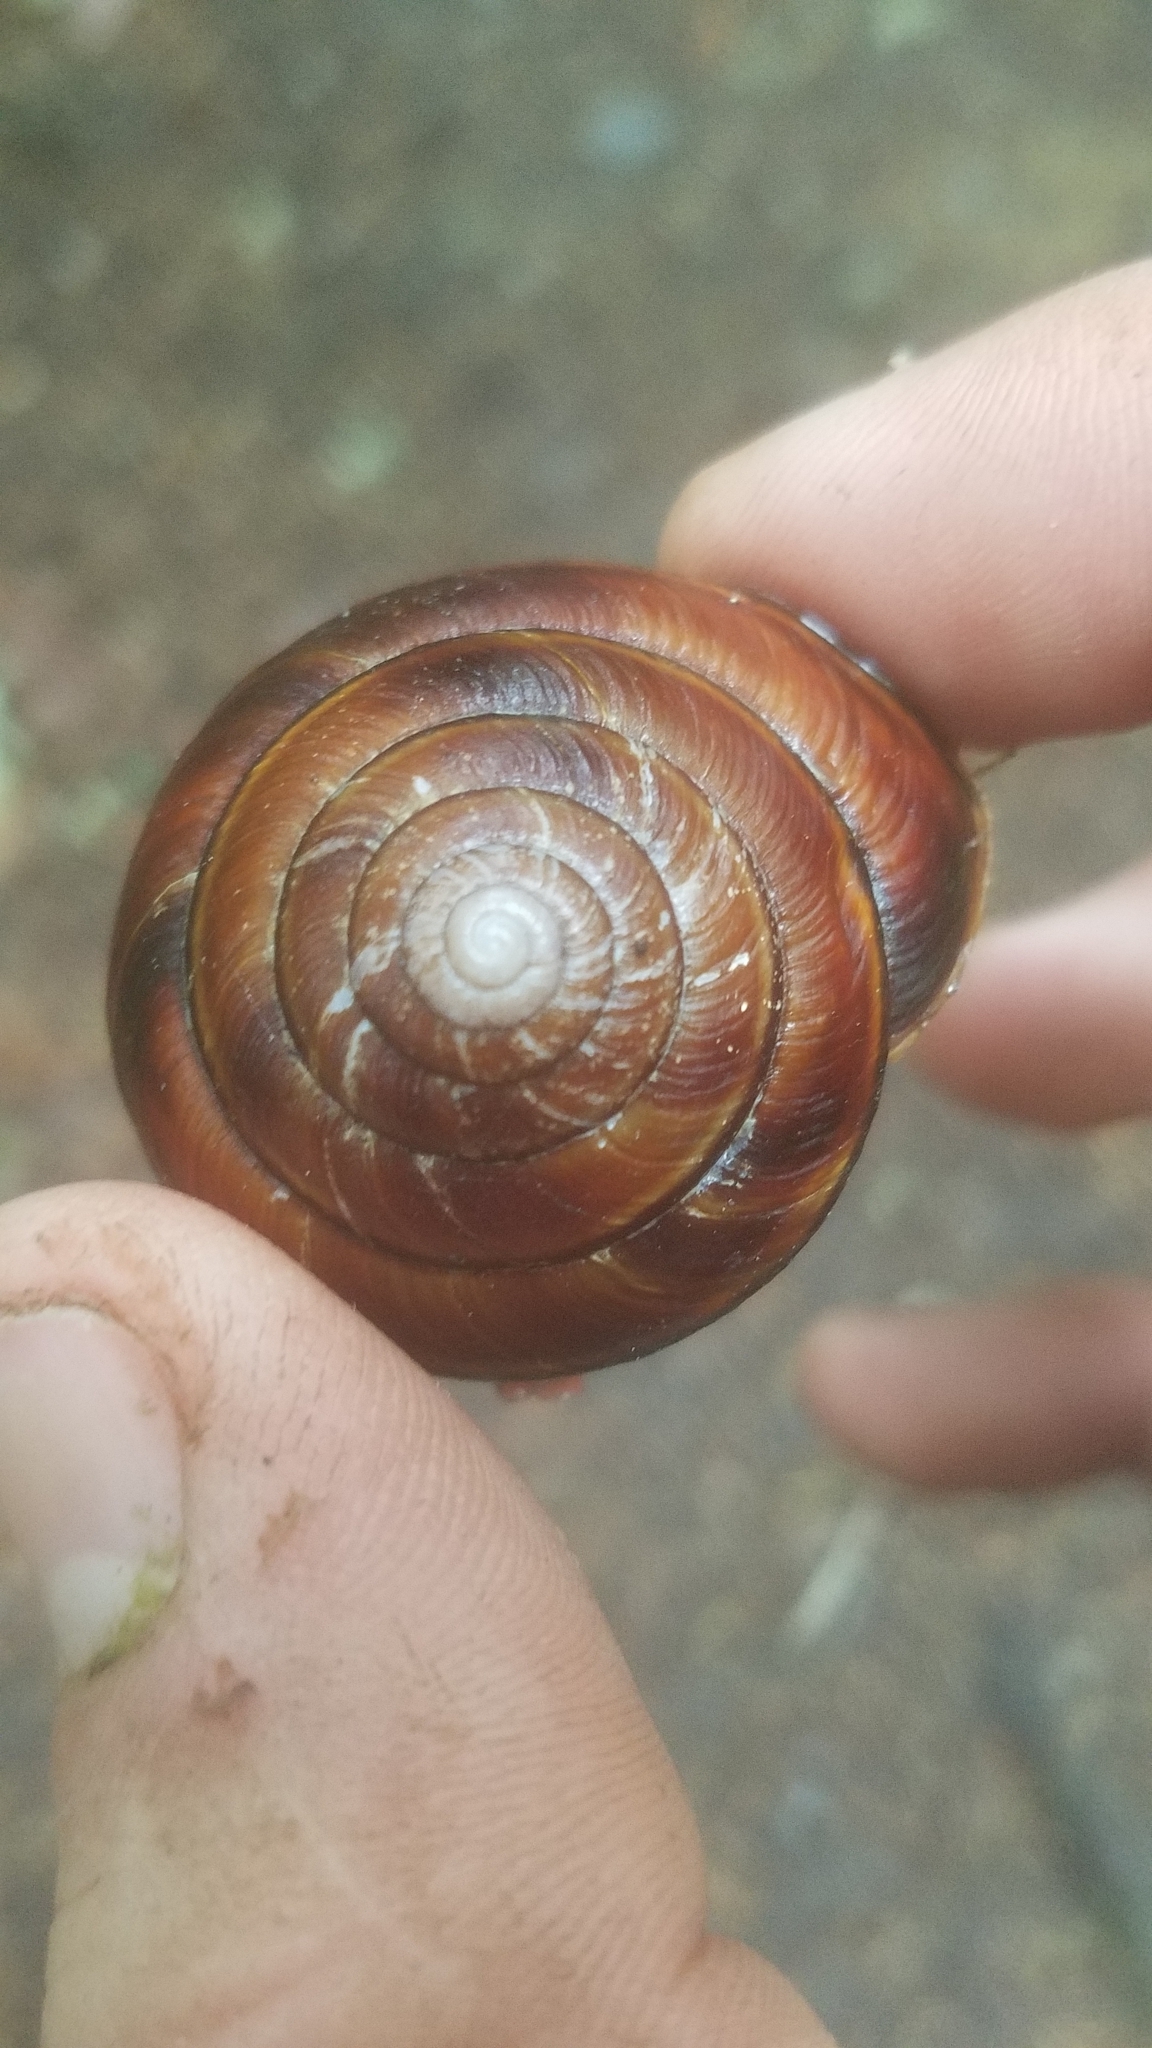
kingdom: Animalia
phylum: Mollusca
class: Gastropoda
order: Stylommatophora
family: Xanthonychidae
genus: Monadenia
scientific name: Monadenia fidelis
